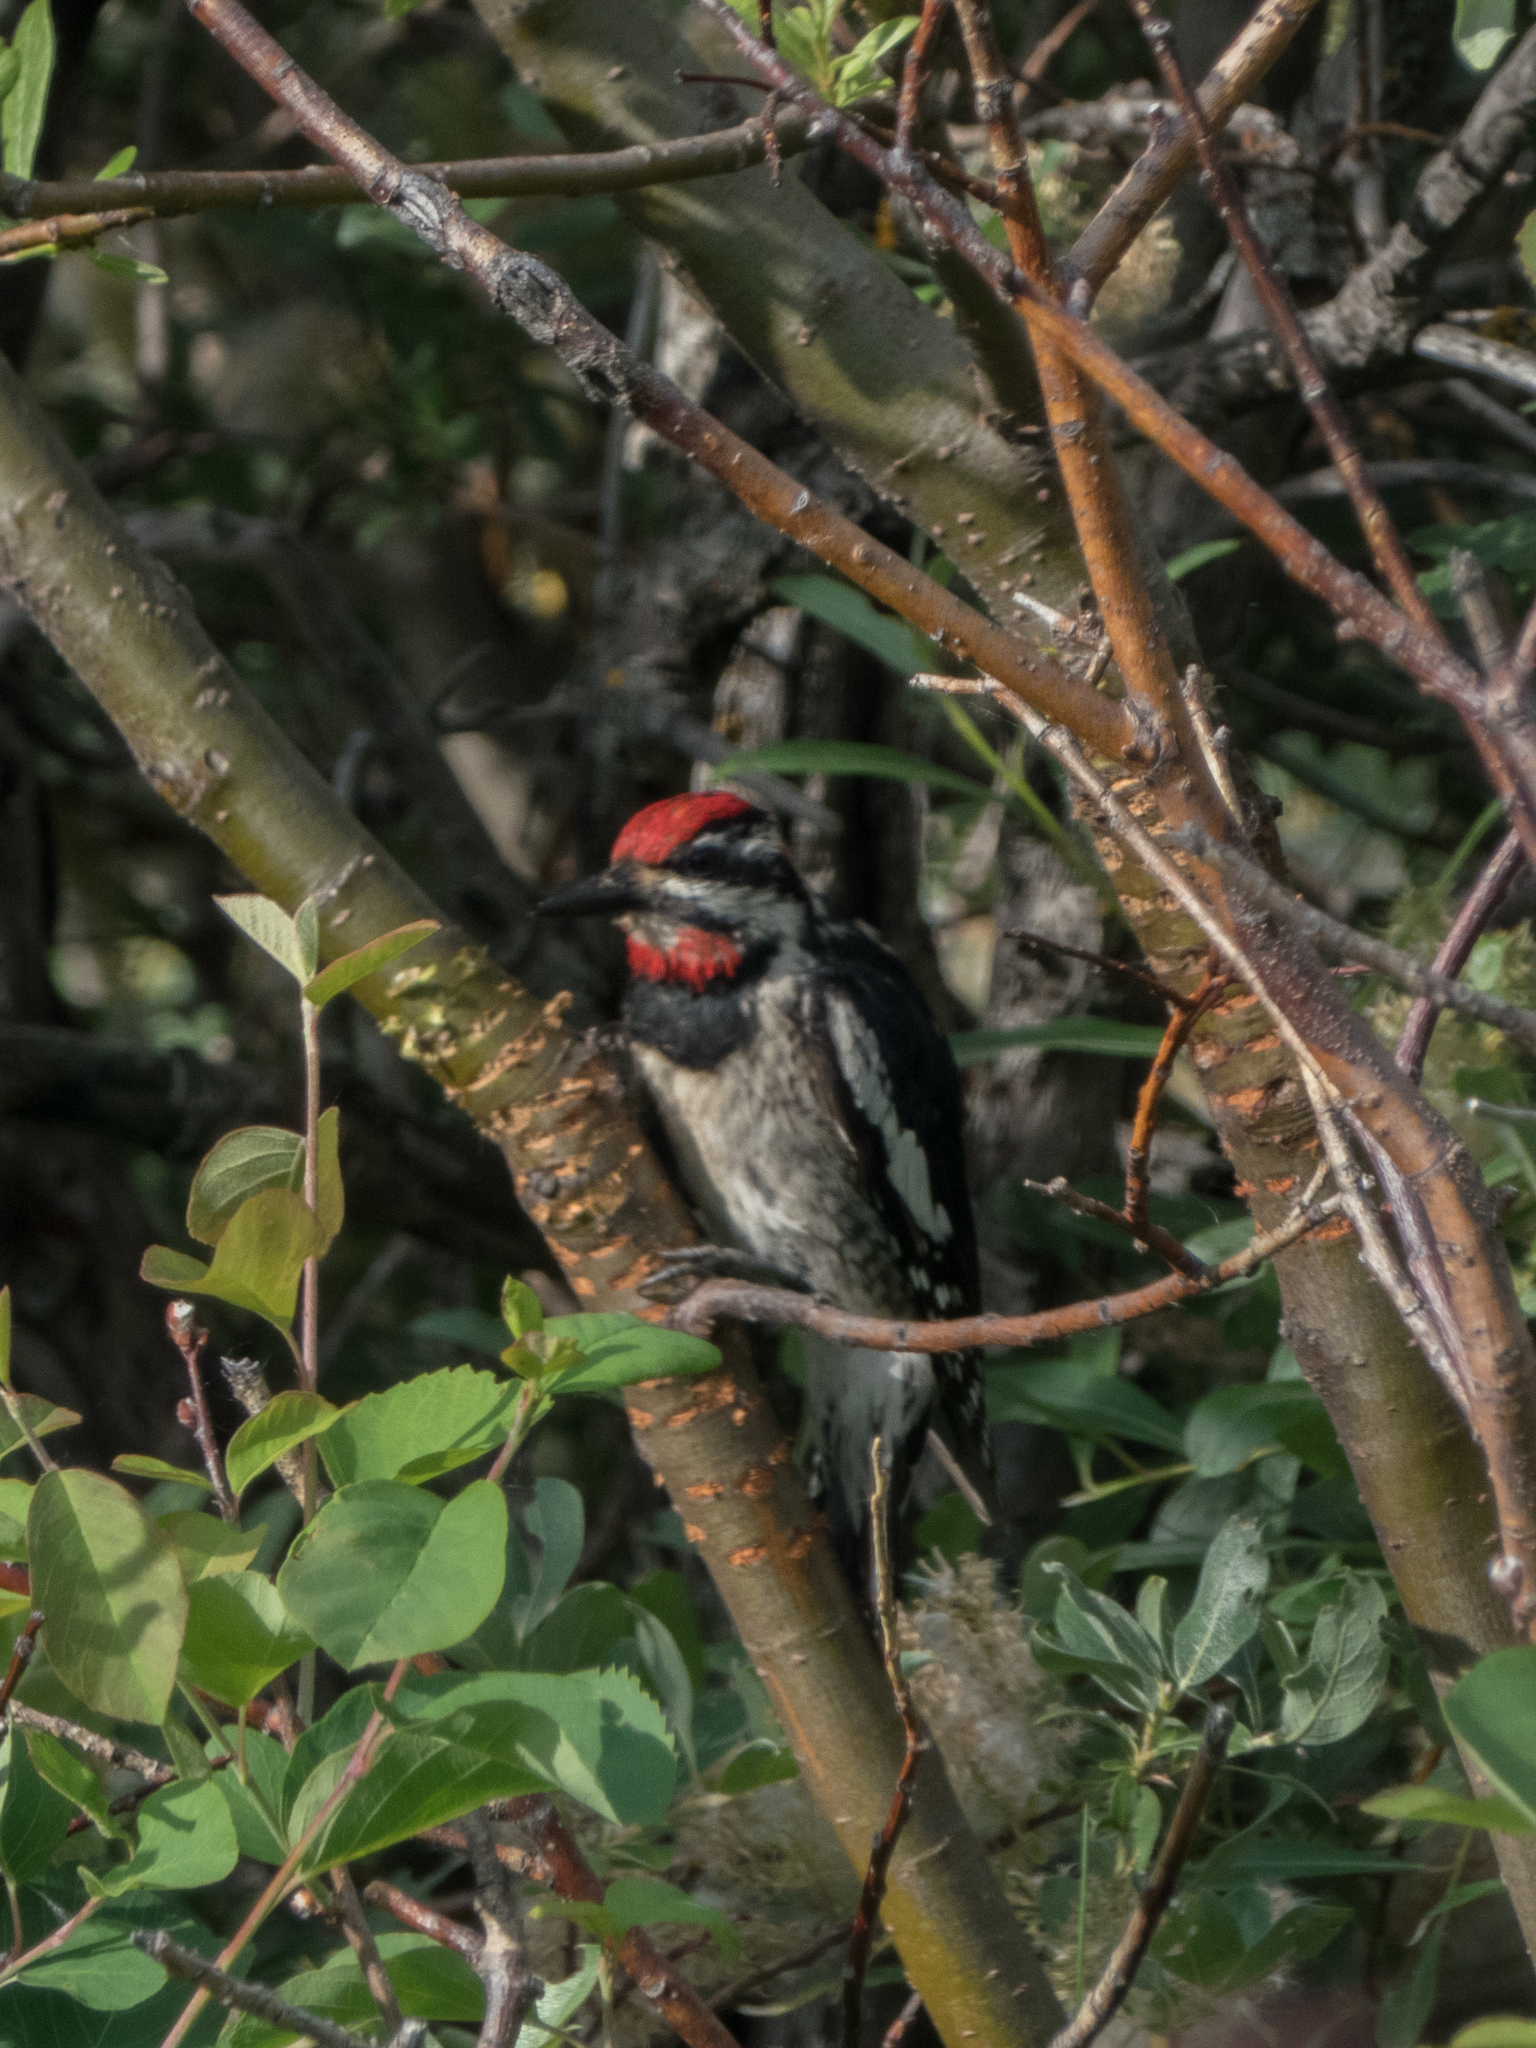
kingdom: Animalia
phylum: Chordata
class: Aves
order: Piciformes
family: Picidae
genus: Sphyrapicus
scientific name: Sphyrapicus nuchalis
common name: Red-naped sapsucker
